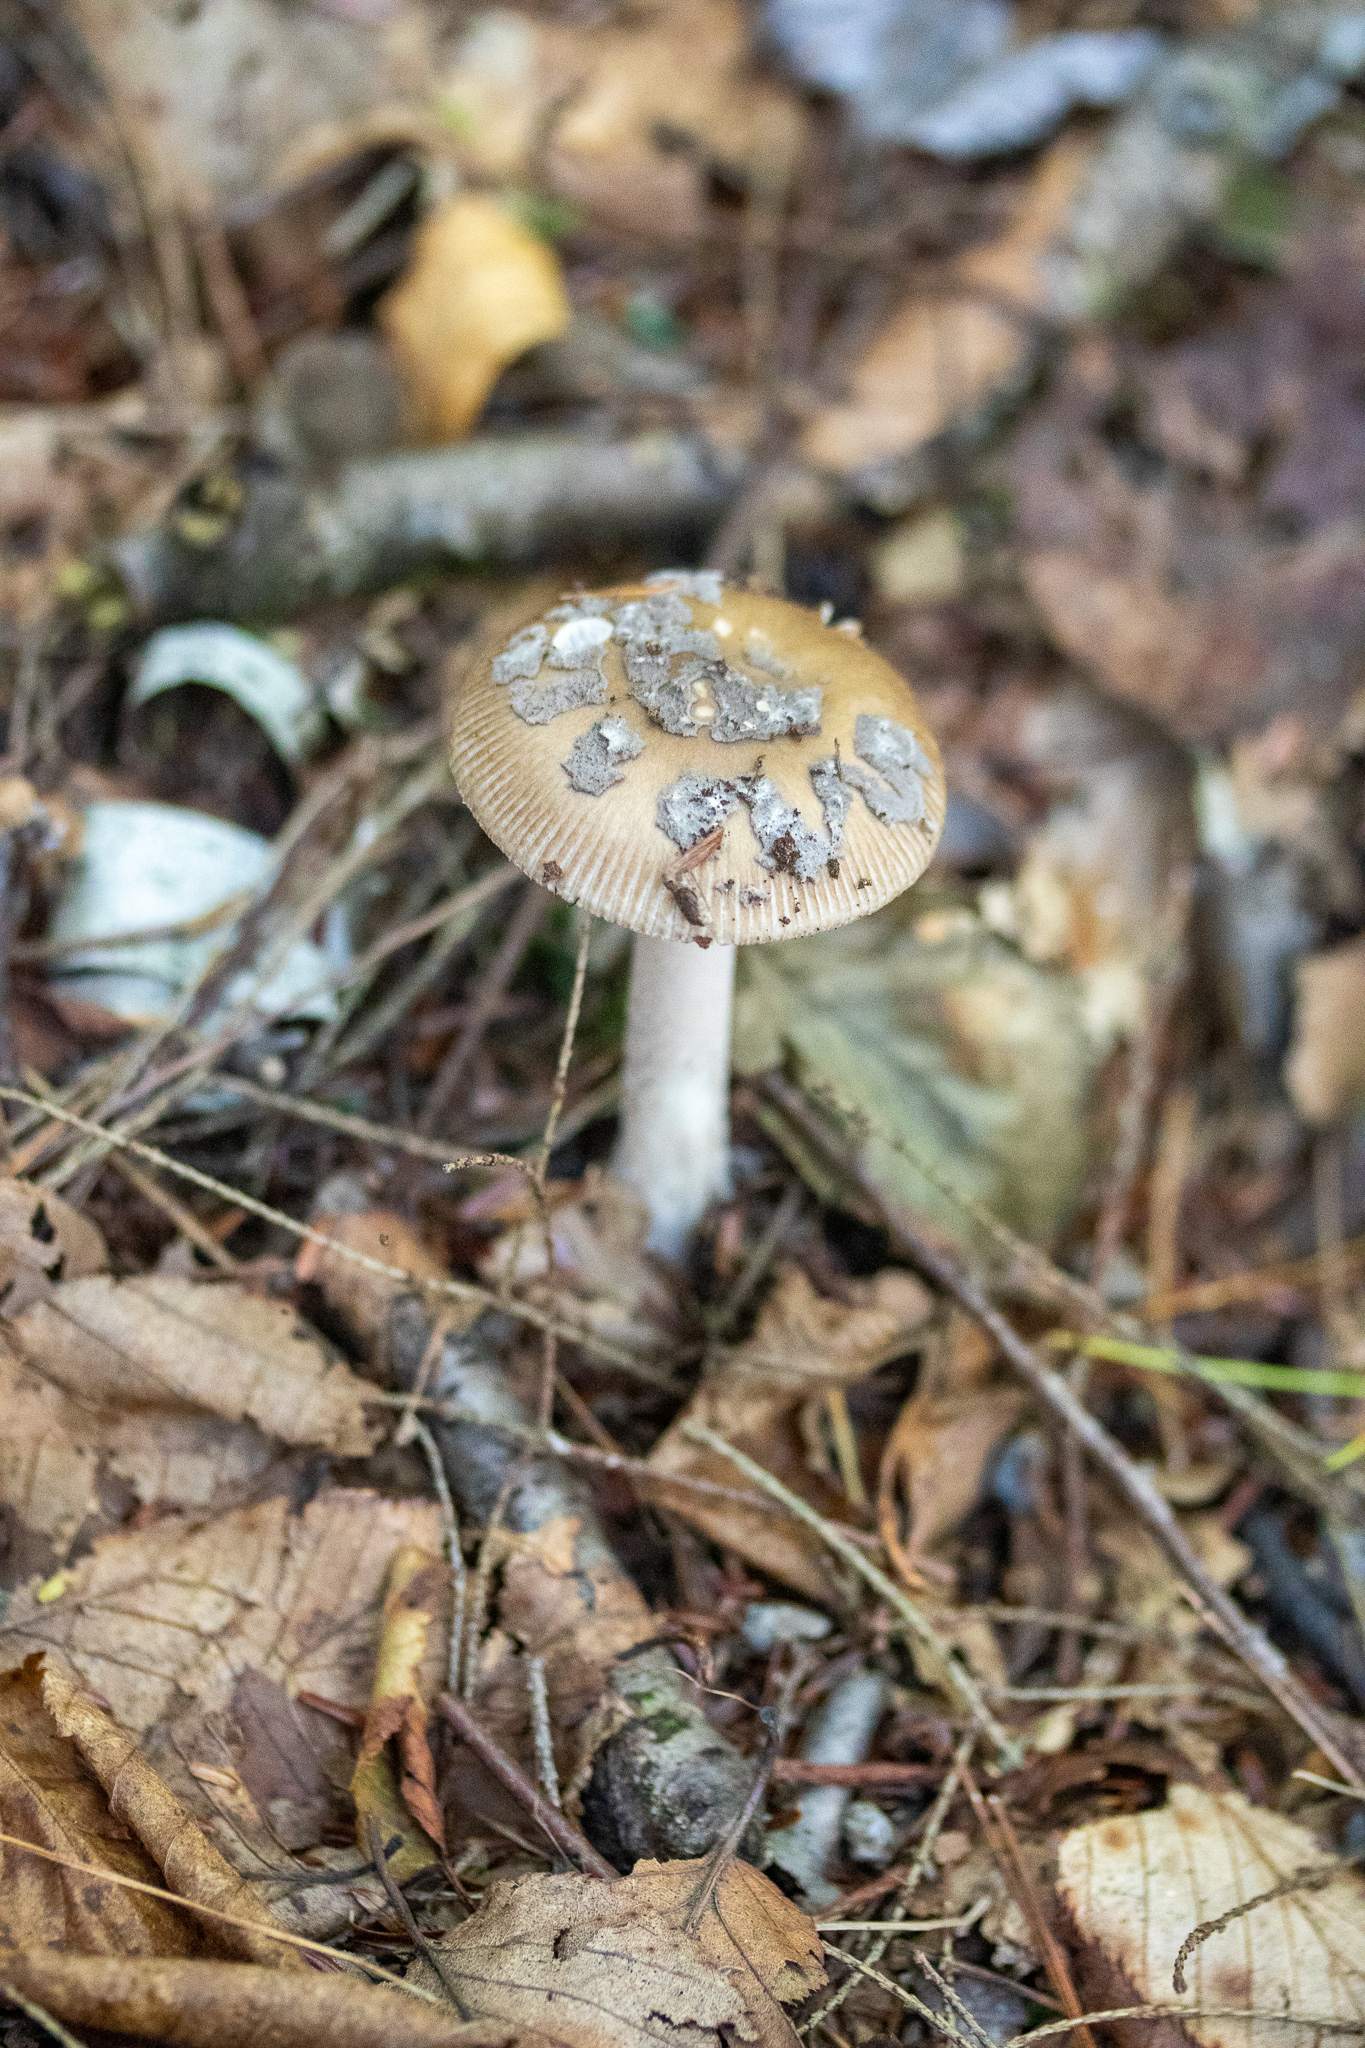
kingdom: Fungi
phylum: Basidiomycota
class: Agaricomycetes
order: Agaricales
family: Amanitaceae
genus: Amanita
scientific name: Amanita rhacopus
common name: Shaggy legged ringless amanita
